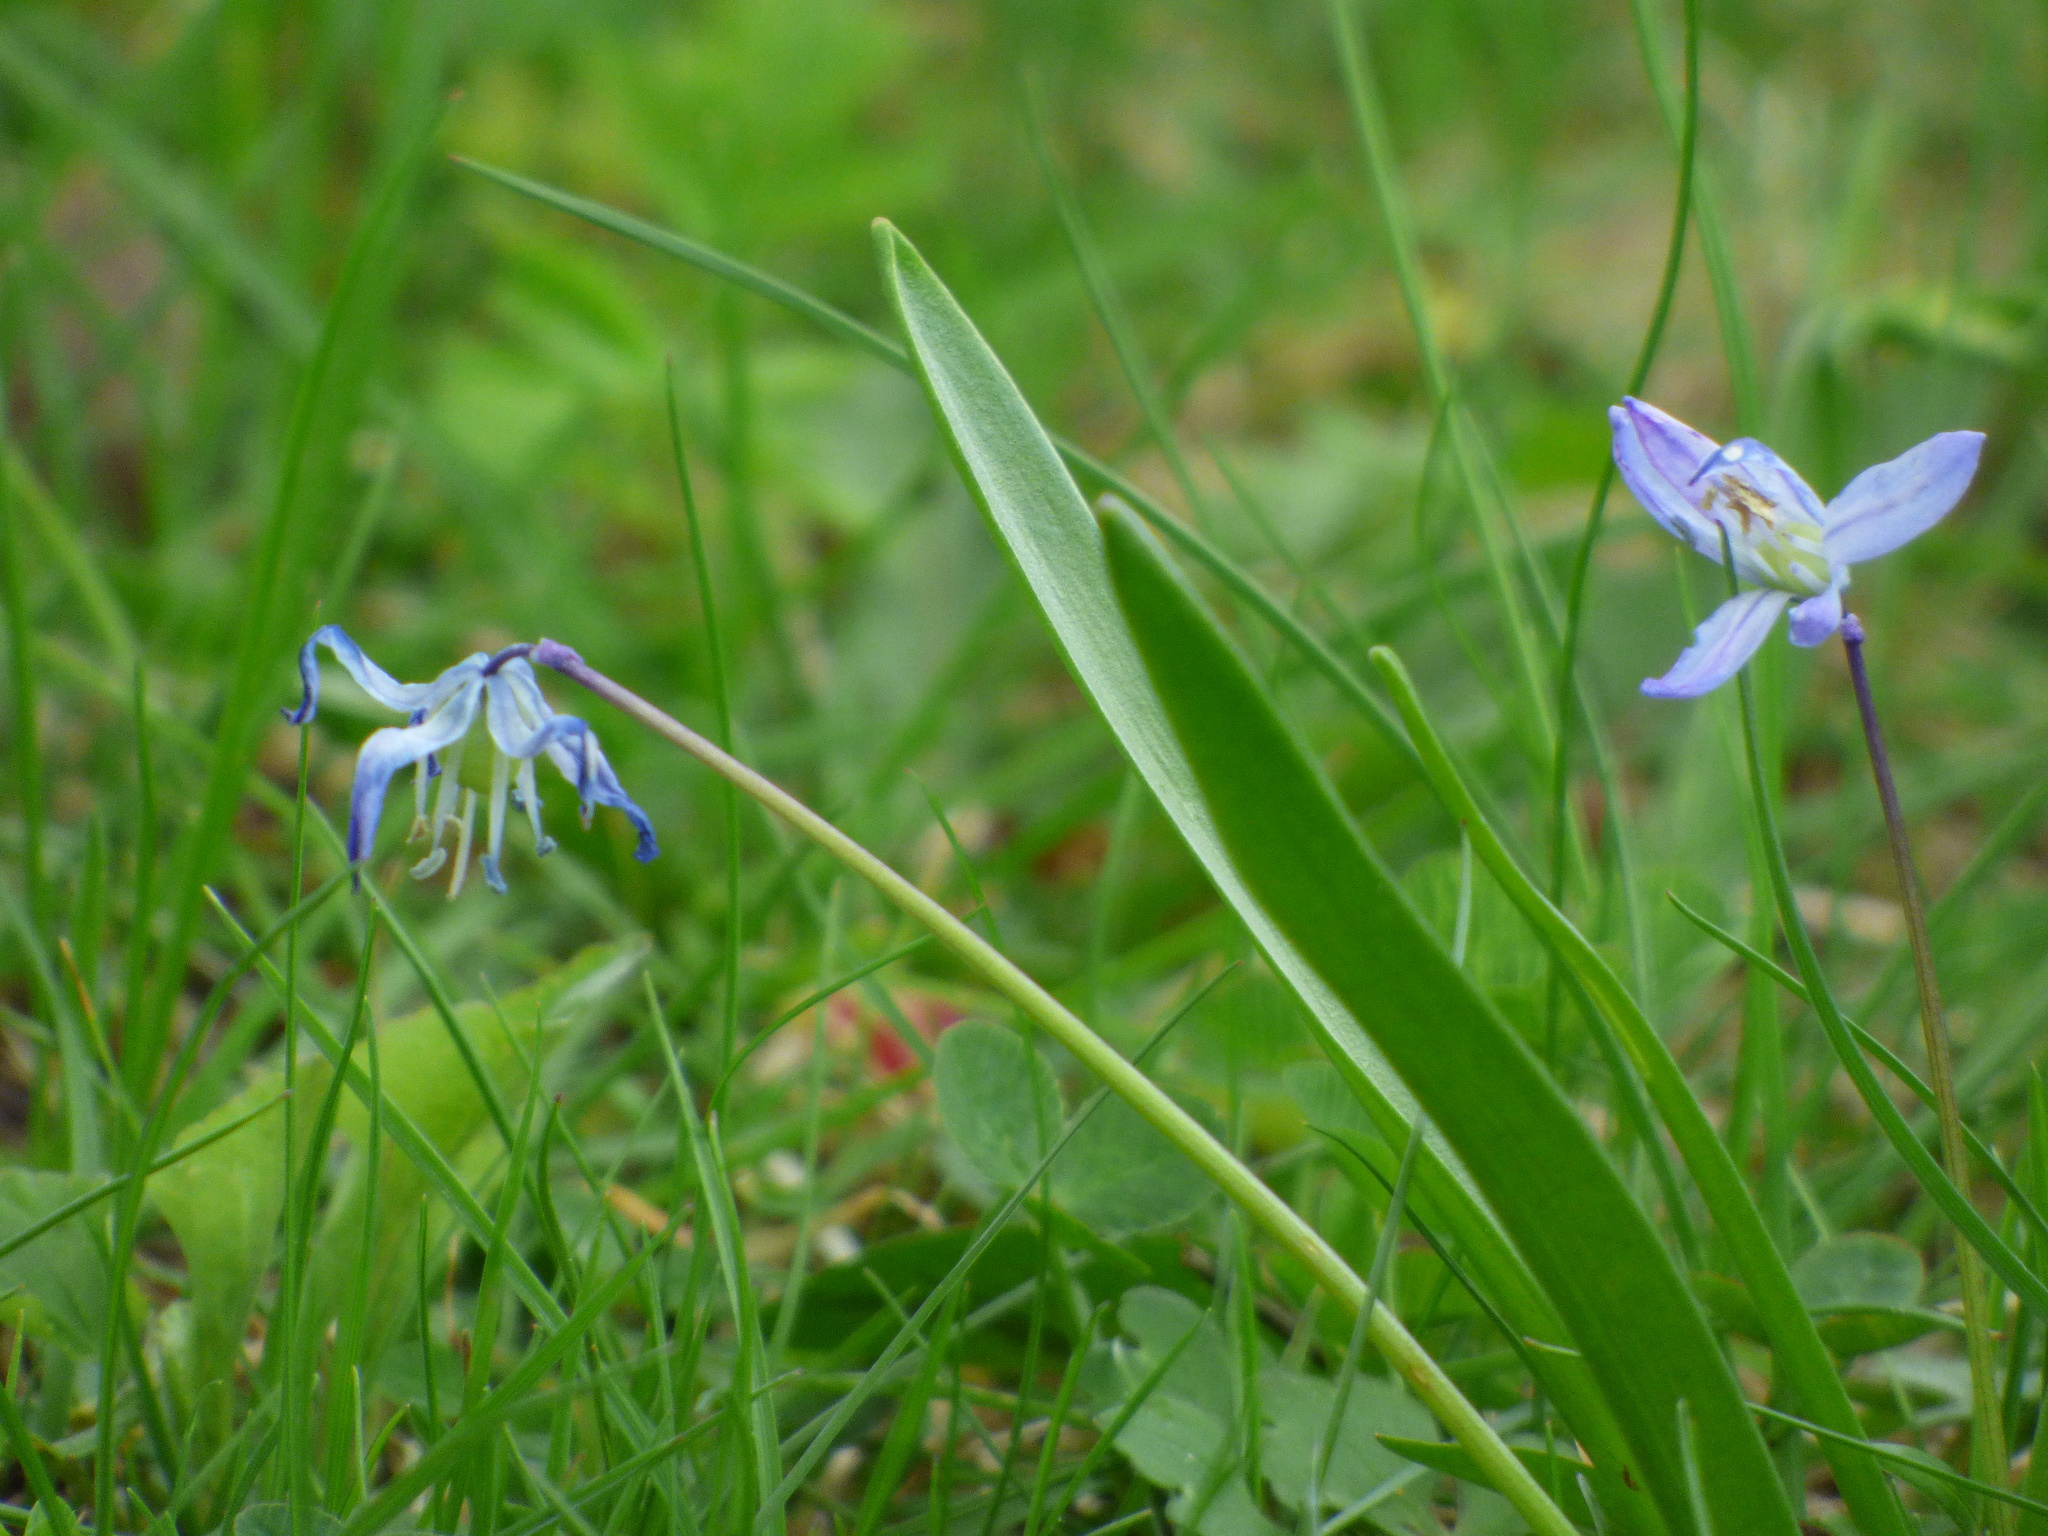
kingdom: Plantae
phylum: Tracheophyta
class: Liliopsida
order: Asparagales
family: Asparagaceae
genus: Scilla
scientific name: Scilla siberica
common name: Siberian squill
